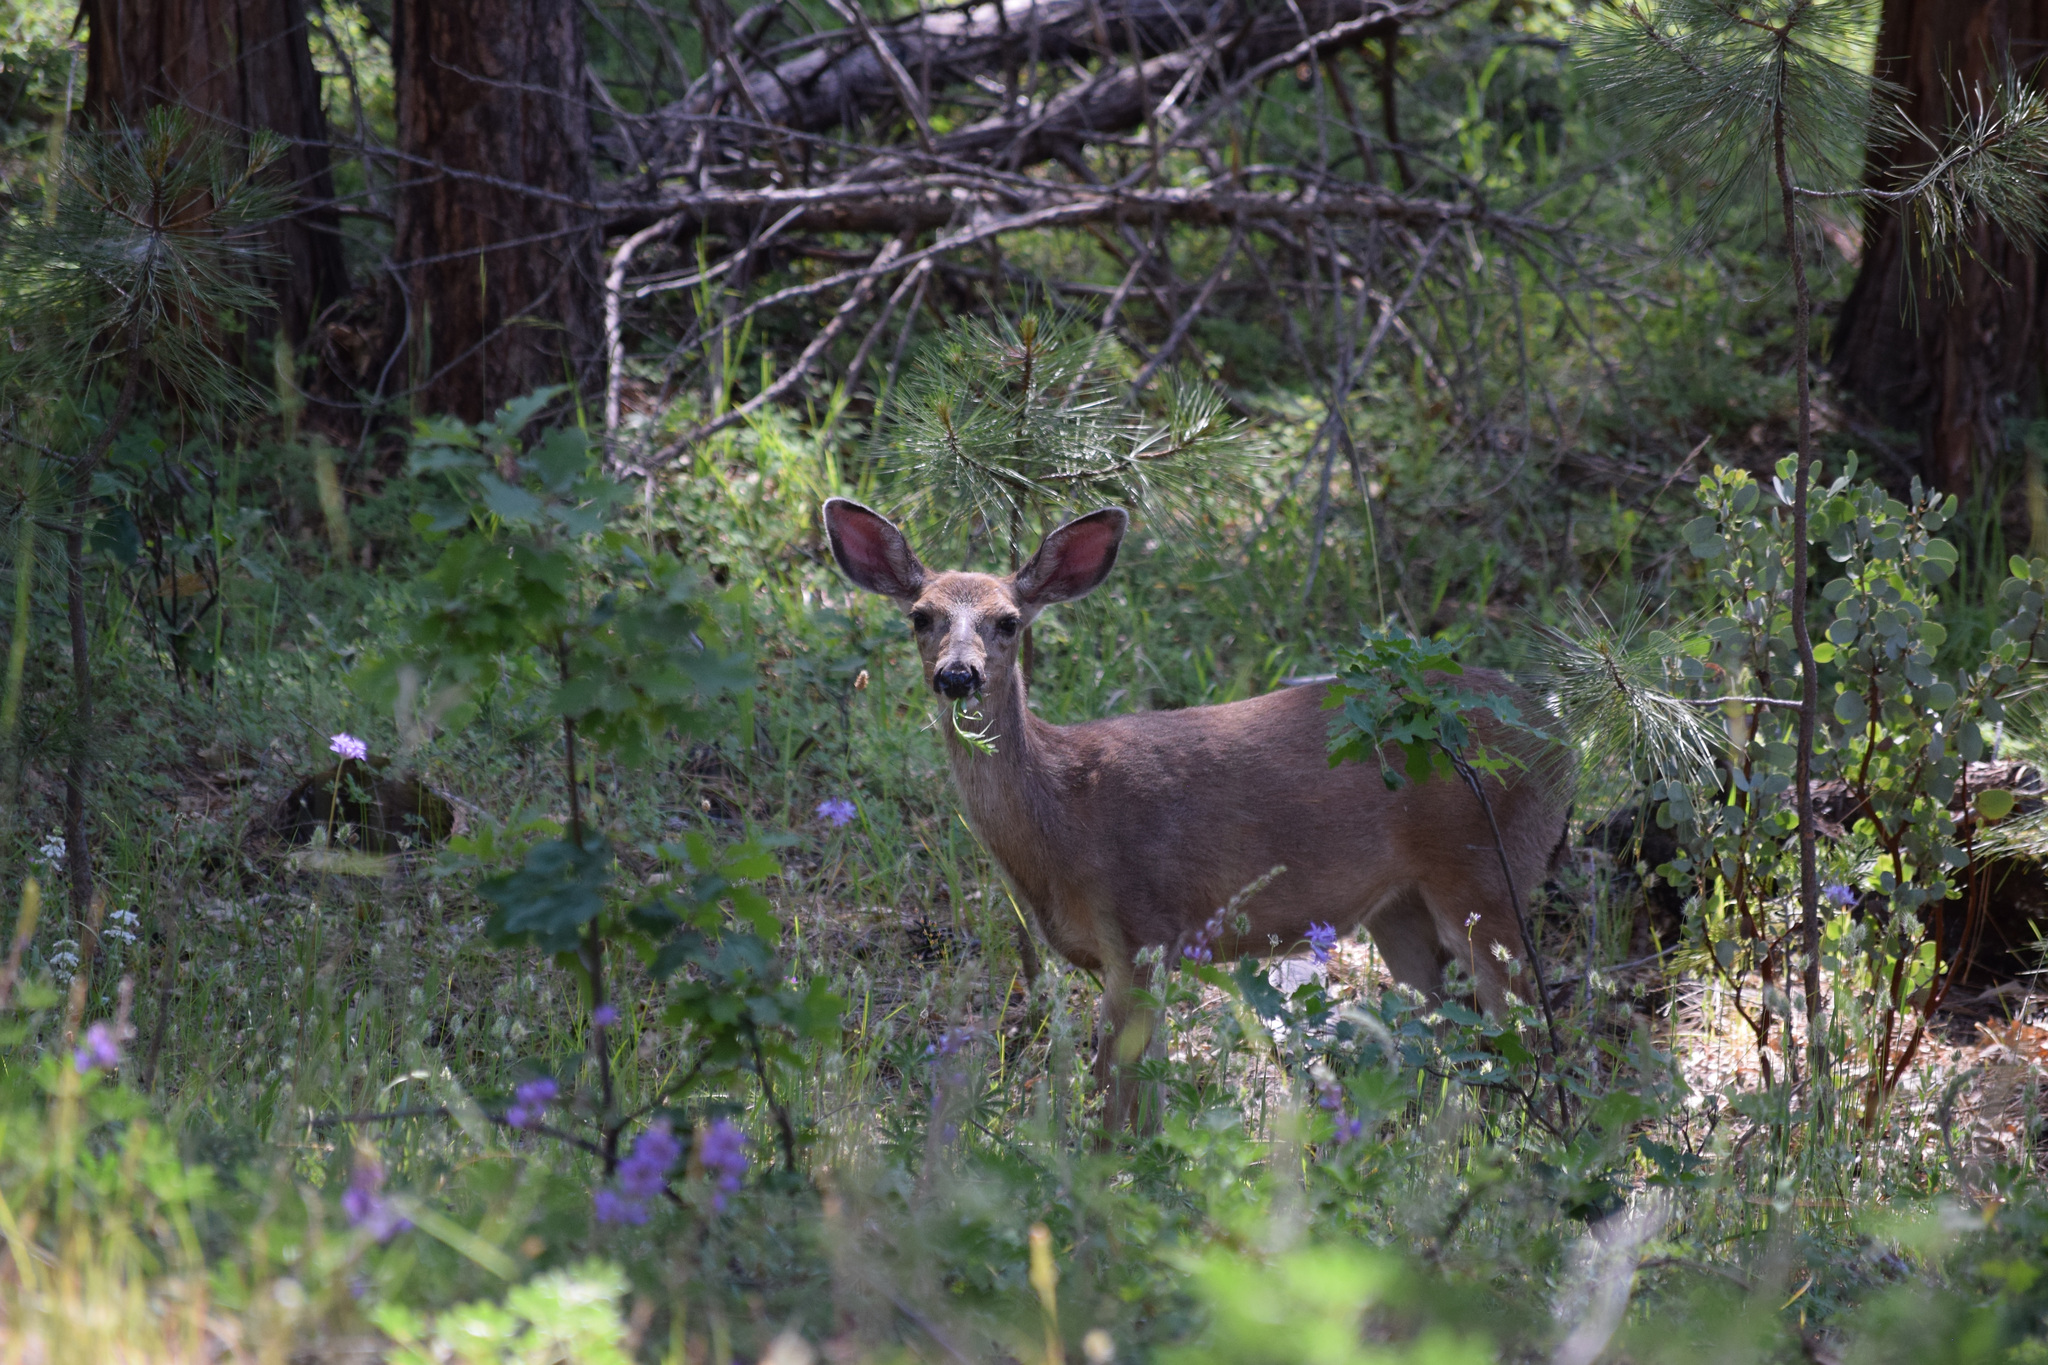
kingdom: Animalia
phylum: Chordata
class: Mammalia
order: Artiodactyla
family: Cervidae
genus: Odocoileus
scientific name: Odocoileus hemionus
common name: Mule deer
